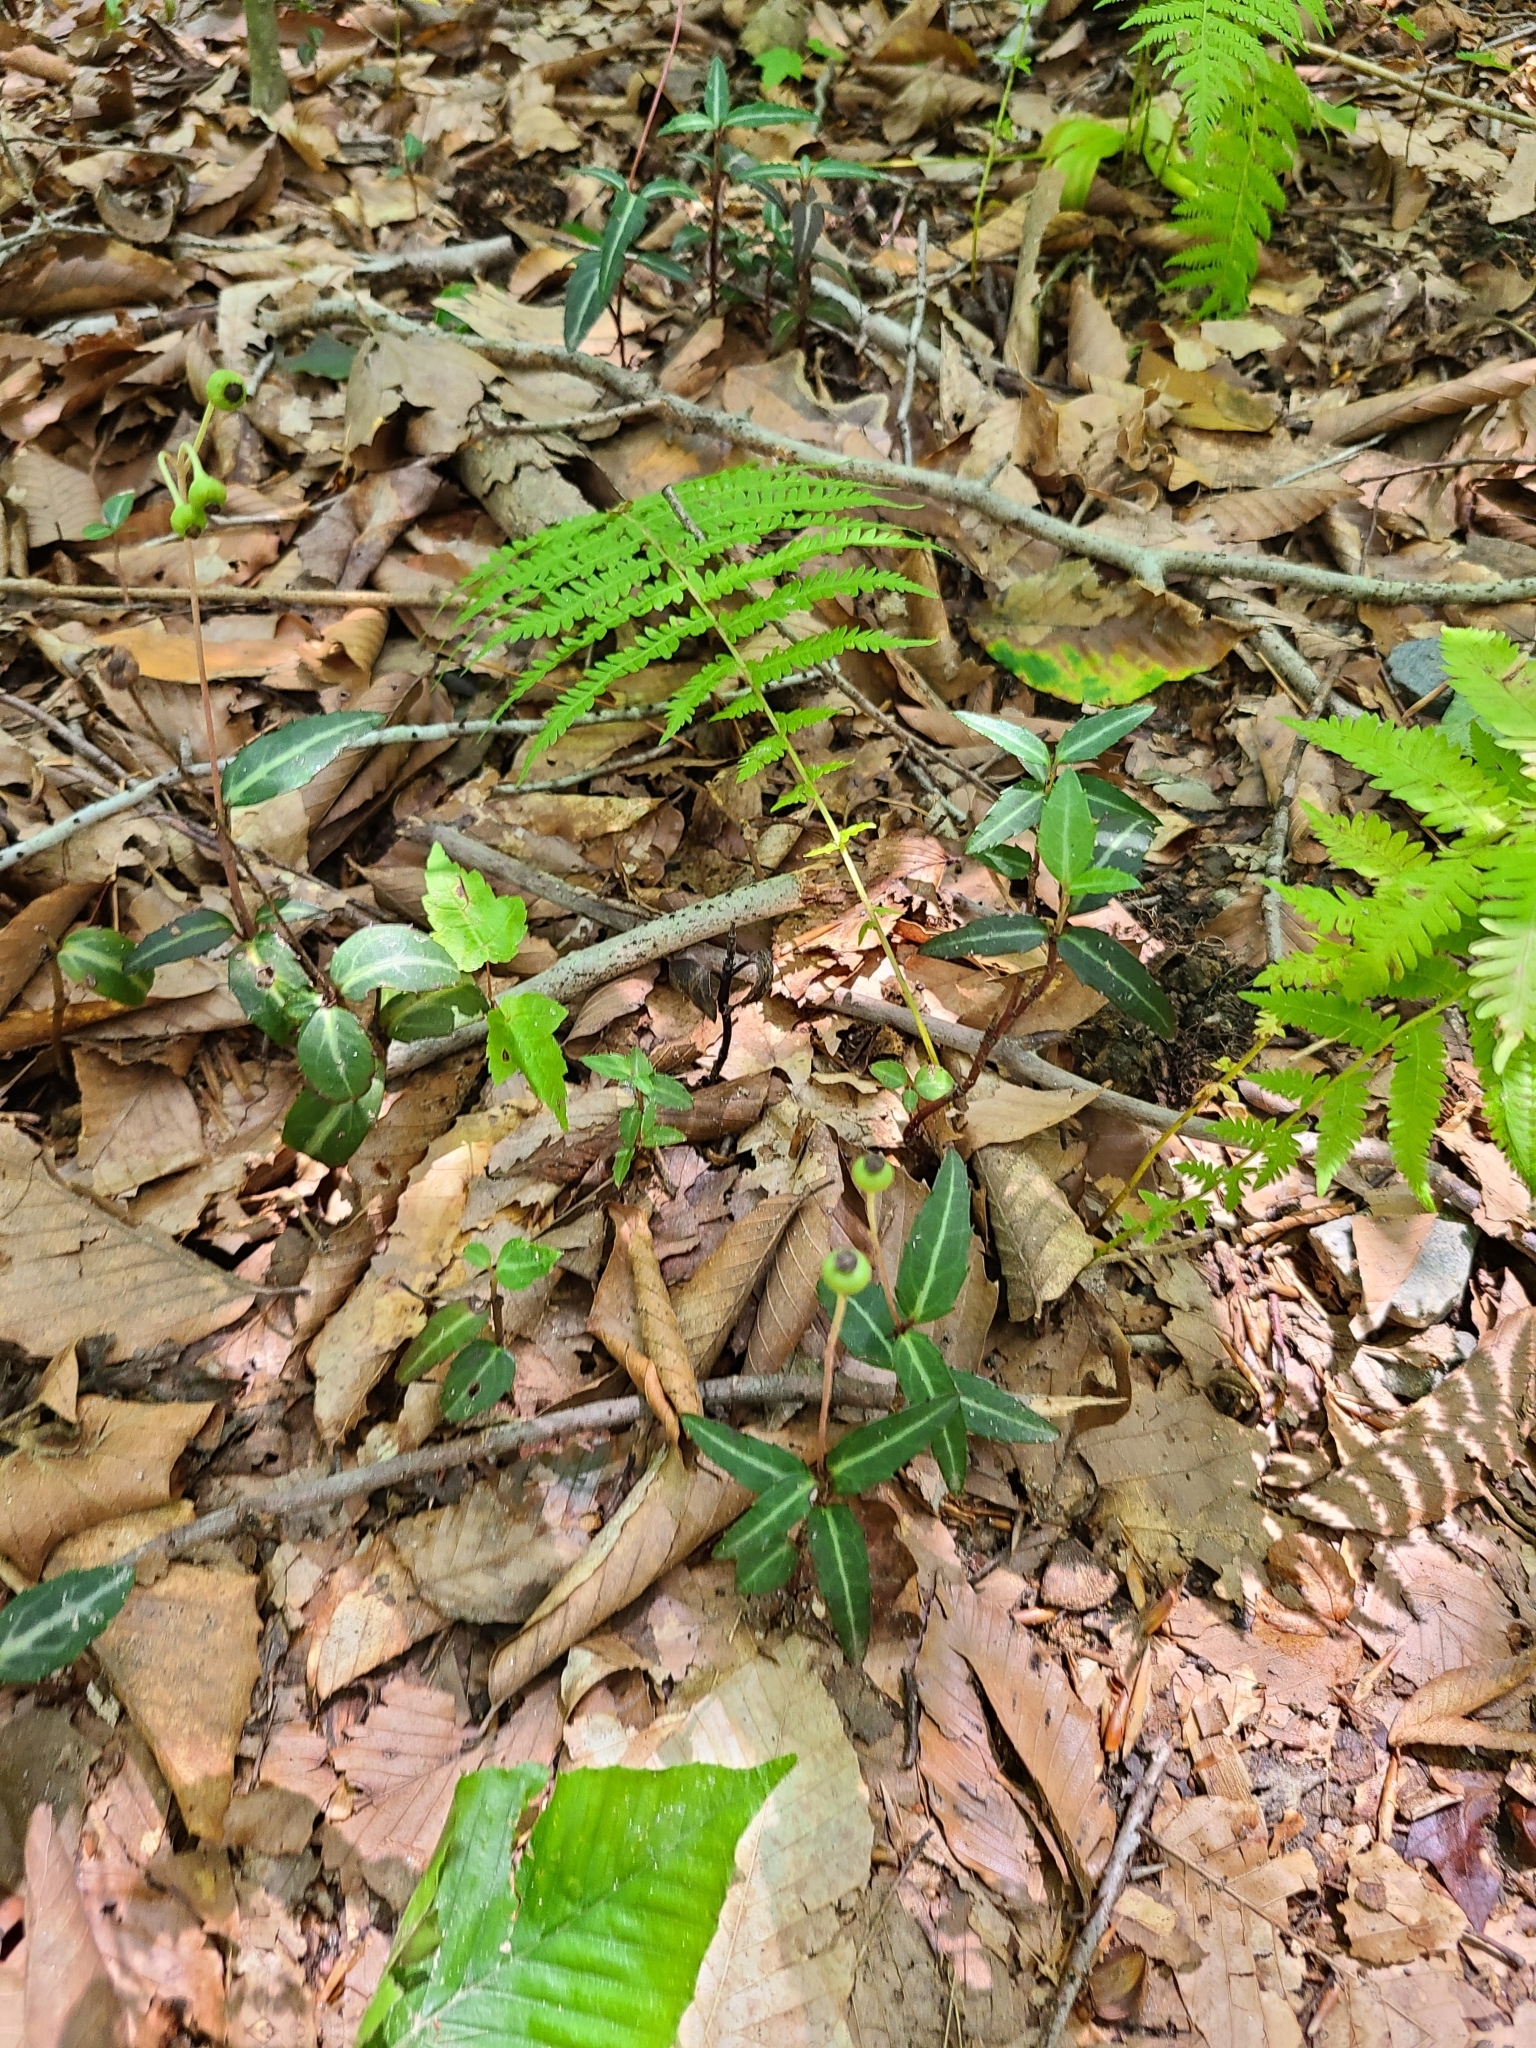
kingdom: Plantae
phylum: Tracheophyta
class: Magnoliopsida
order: Ericales
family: Ericaceae
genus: Chimaphila
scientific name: Chimaphila maculata
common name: Spotted pipsissewa
